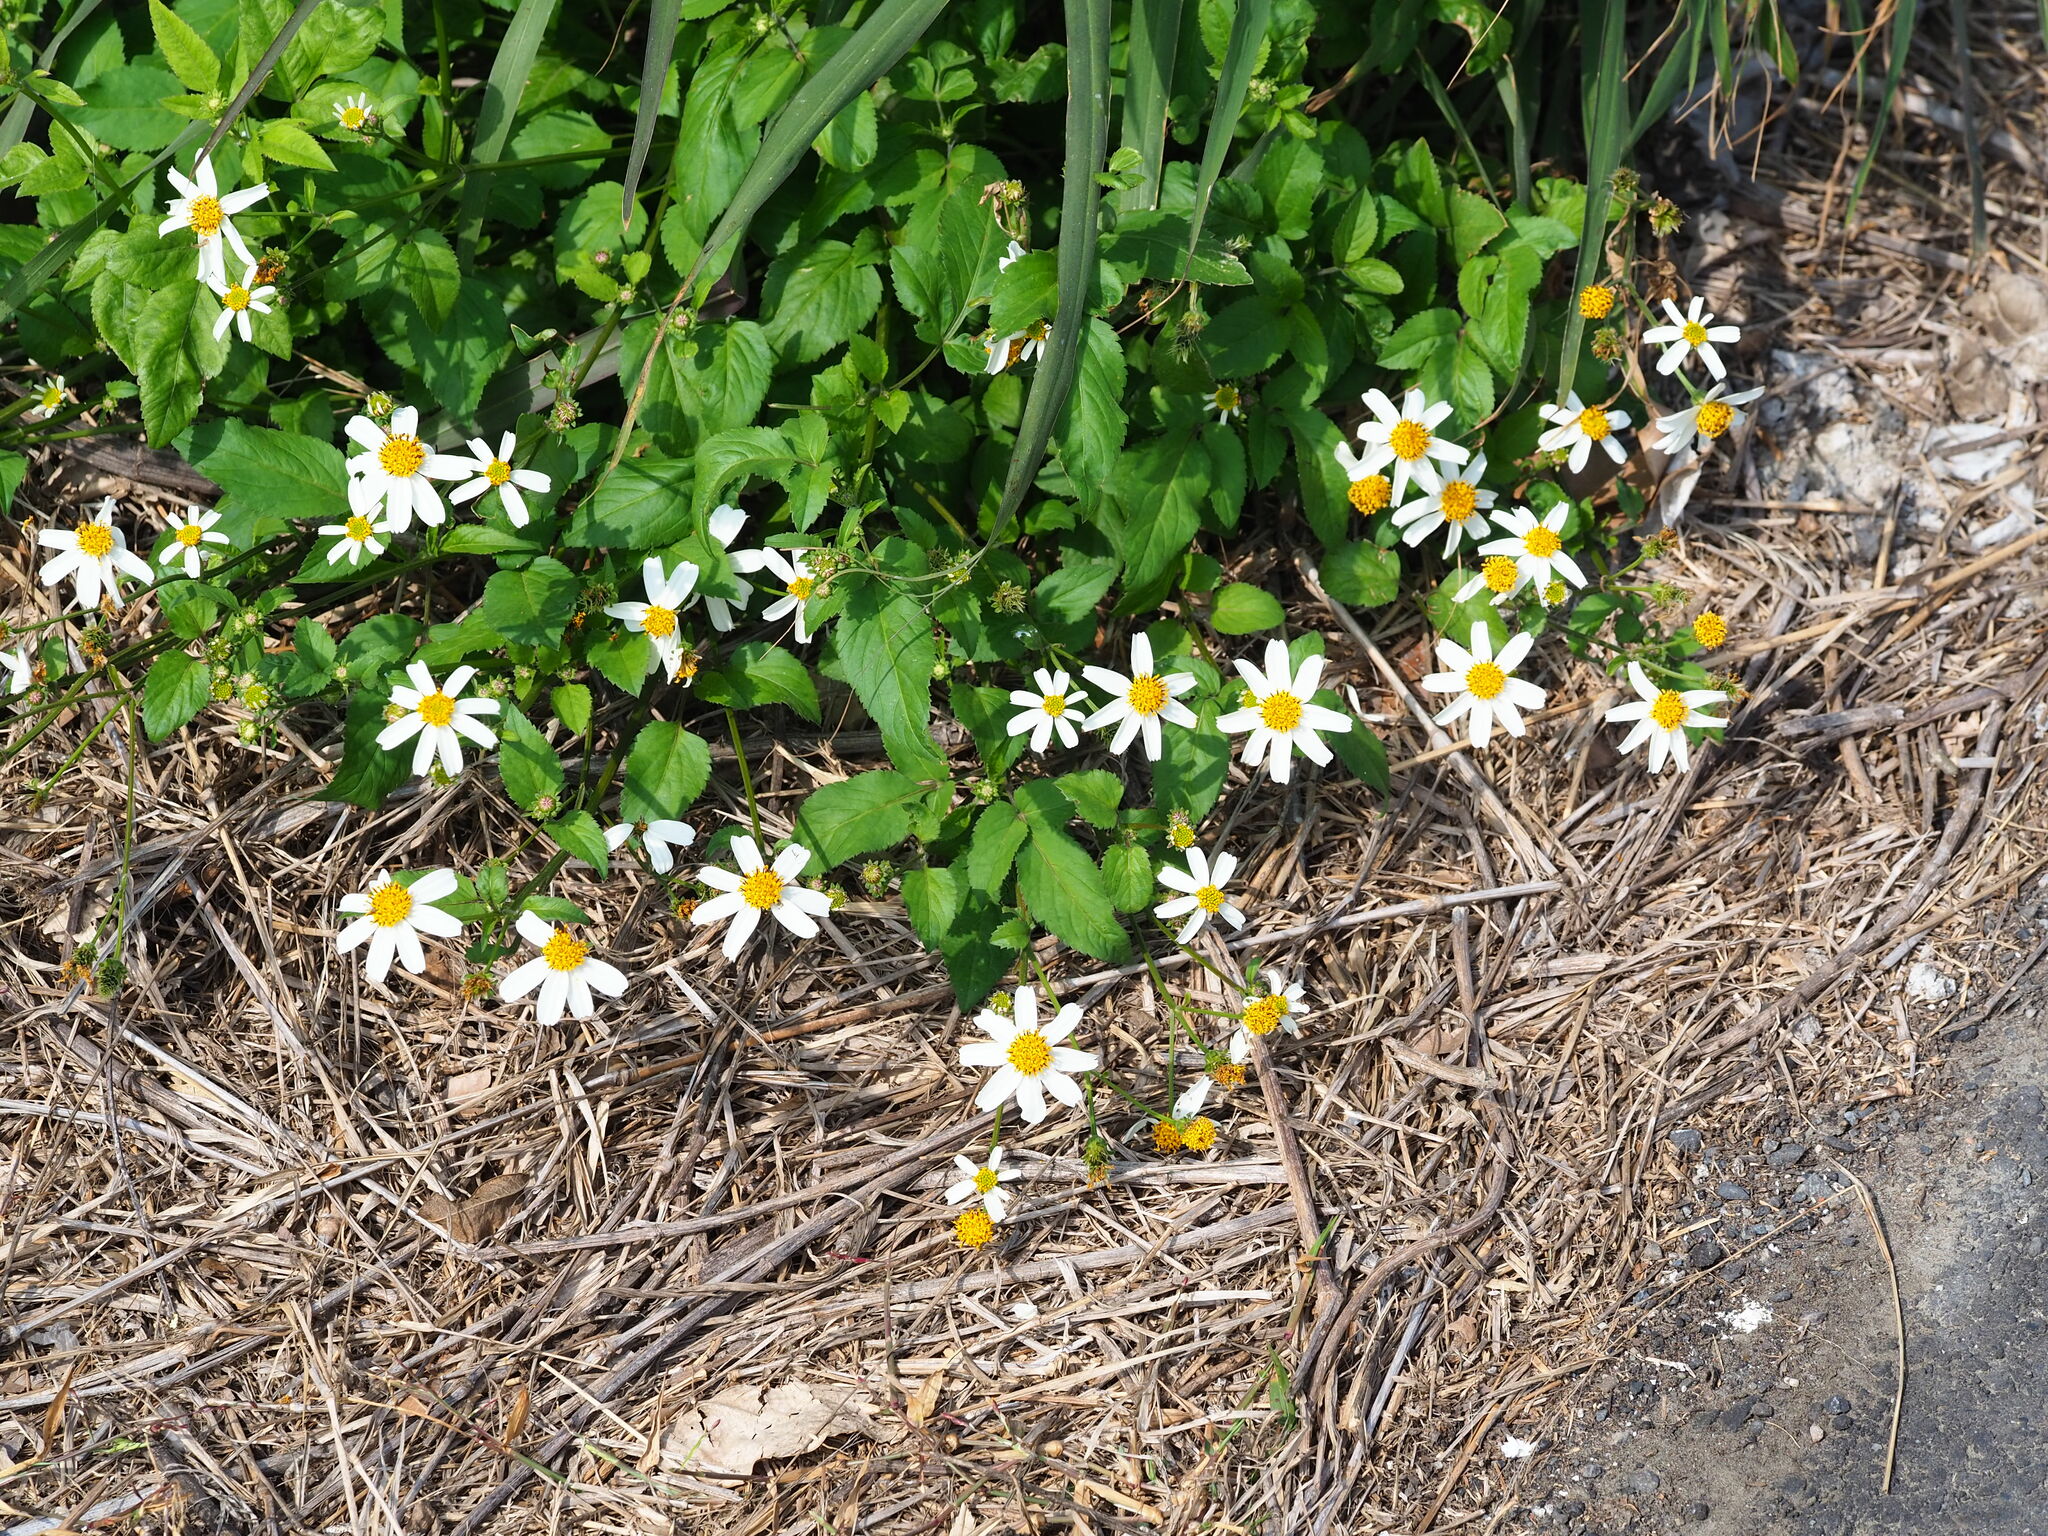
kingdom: Plantae
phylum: Tracheophyta
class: Magnoliopsida
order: Asterales
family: Asteraceae
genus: Bidens
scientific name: Bidens alba
